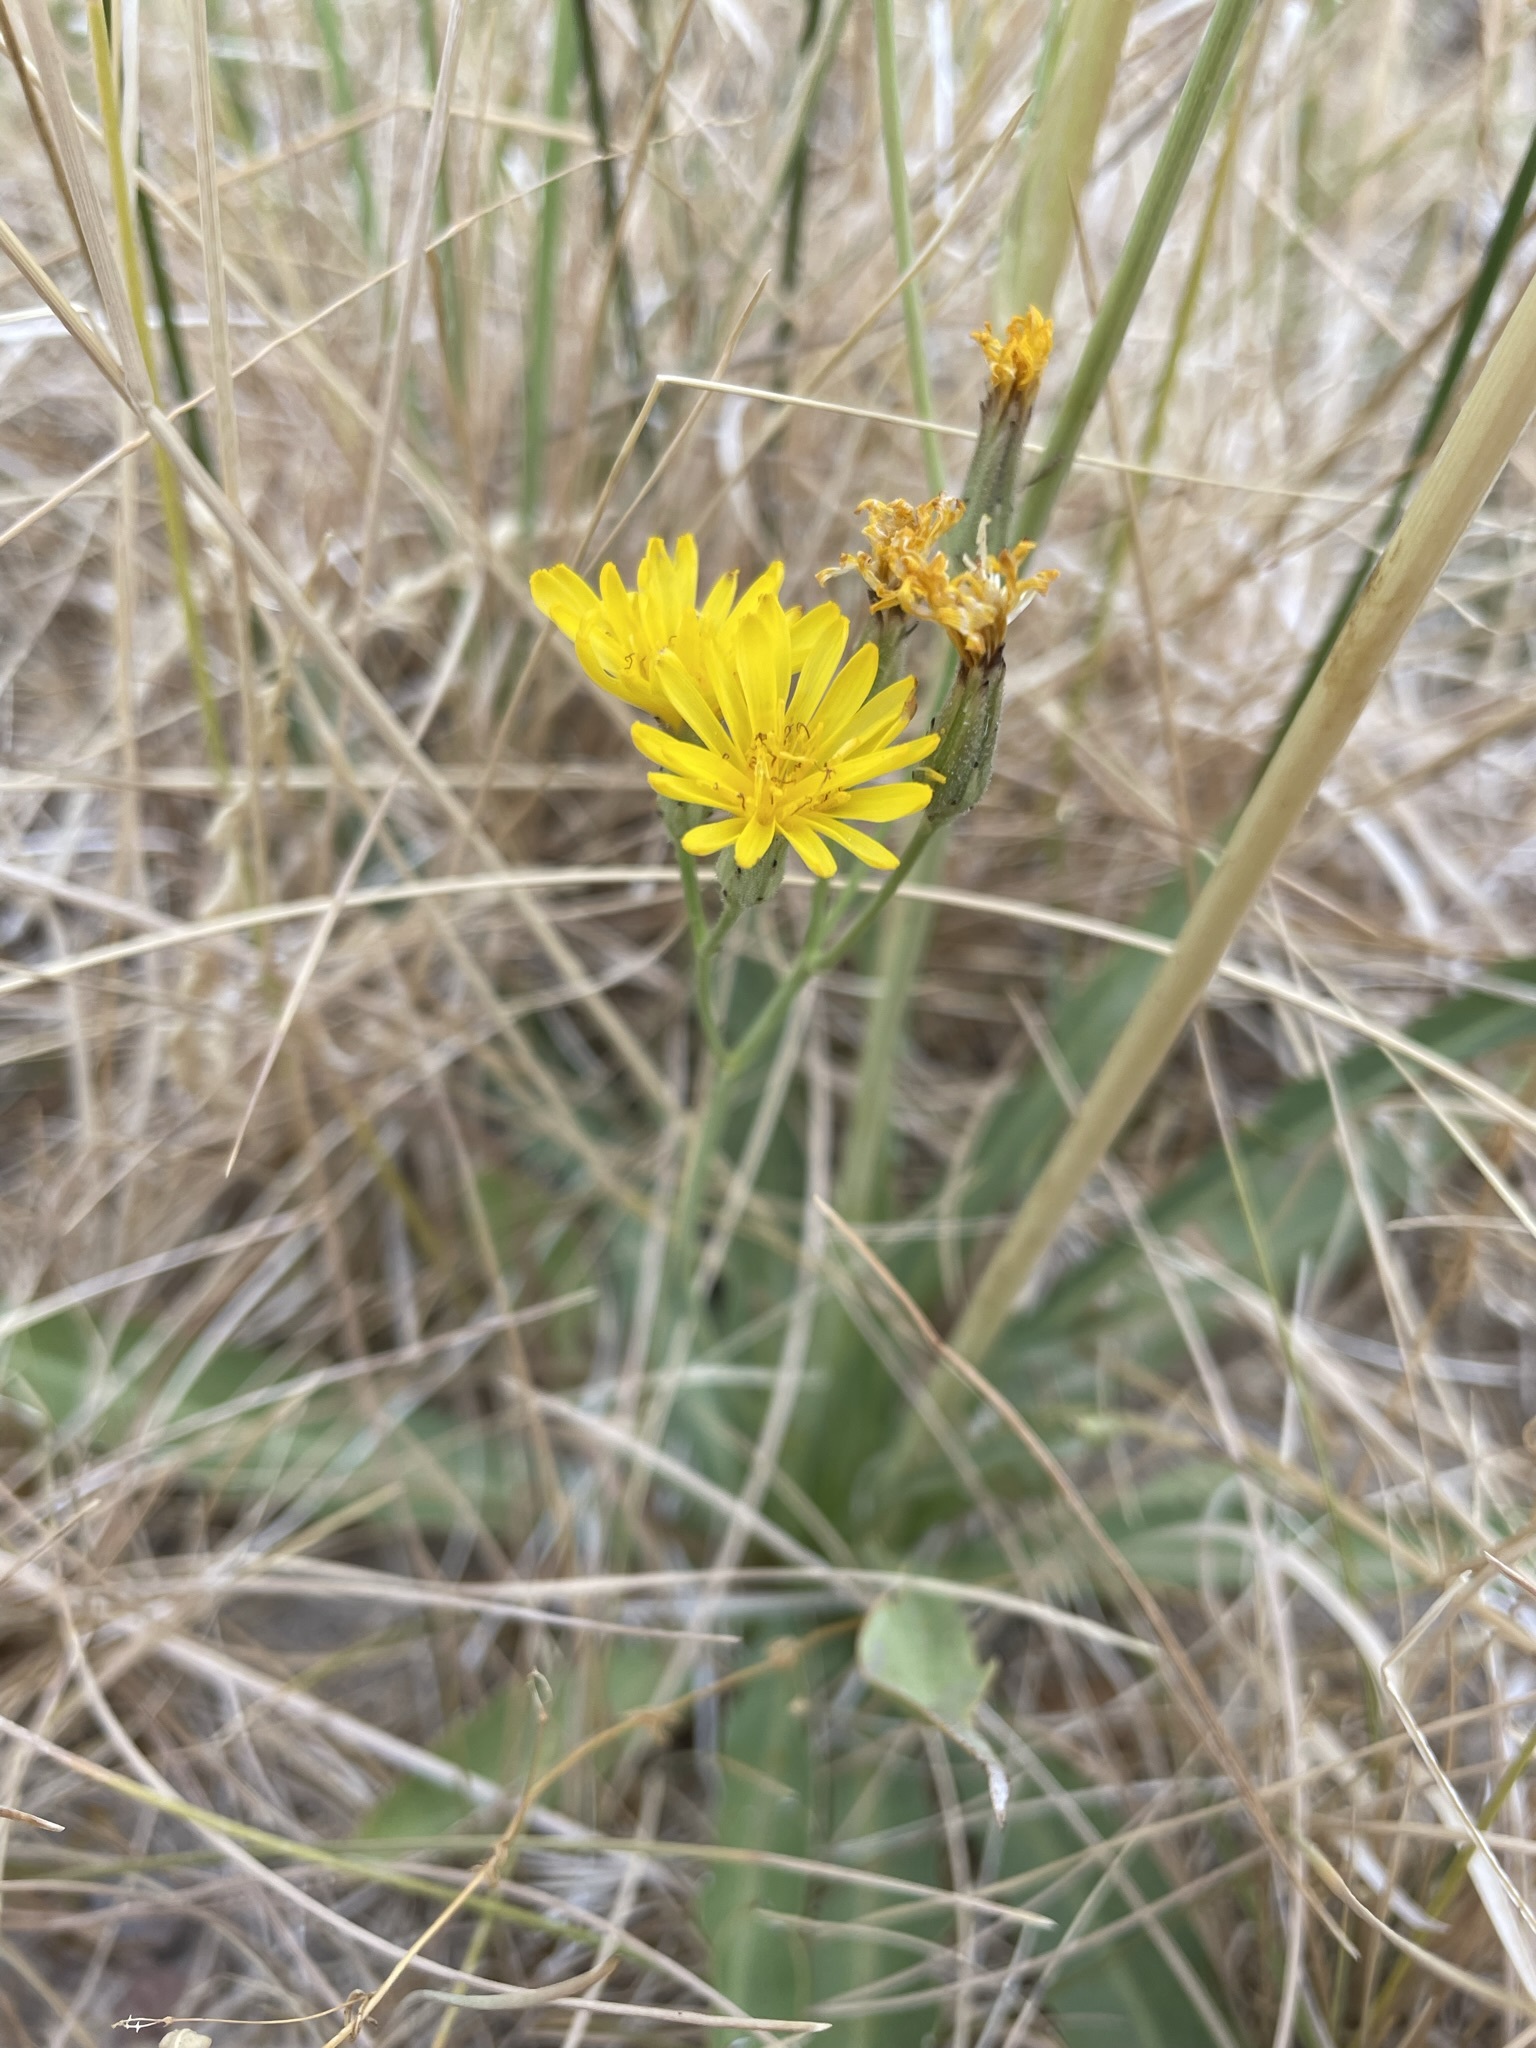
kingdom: Plantae
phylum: Tracheophyta
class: Magnoliopsida
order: Asterales
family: Asteraceae
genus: Crepis
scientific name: Crepis runcinata
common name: Dandelion hawksbeard
